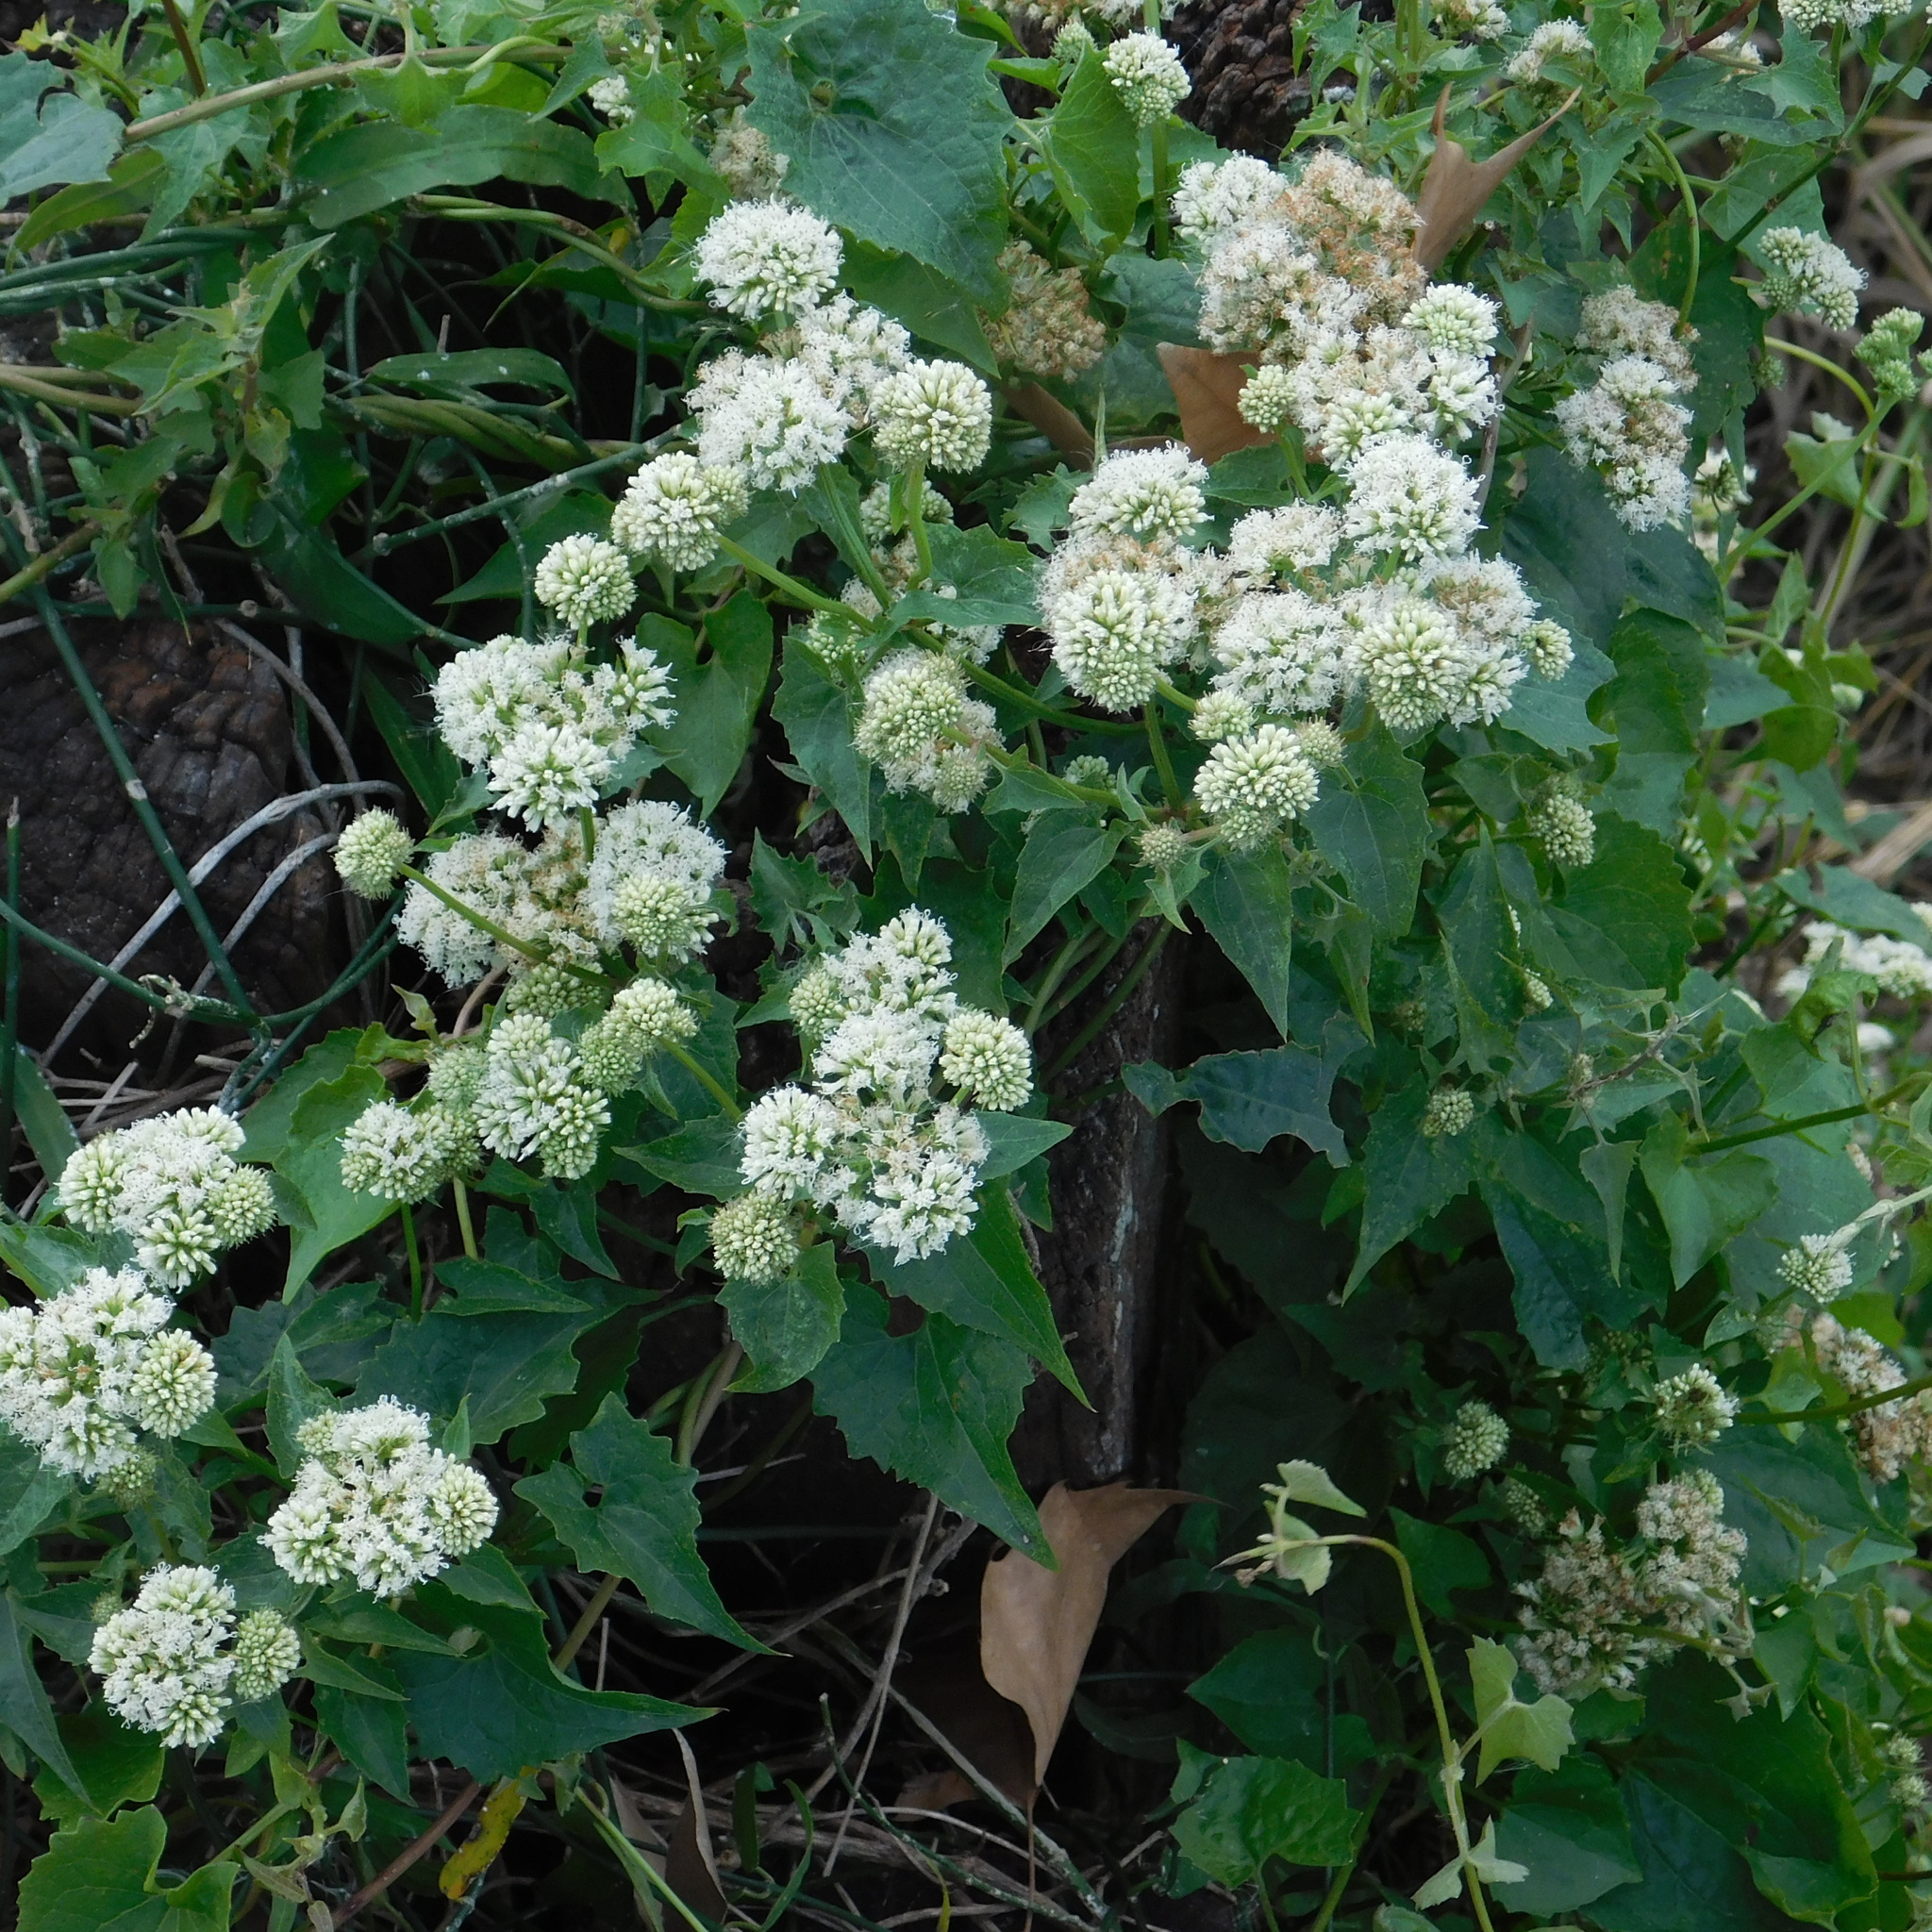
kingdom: Plantae
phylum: Tracheophyta
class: Magnoliopsida
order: Asterales
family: Asteraceae
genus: Mikania
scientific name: Mikania micrantha
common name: Mile-a-minute
